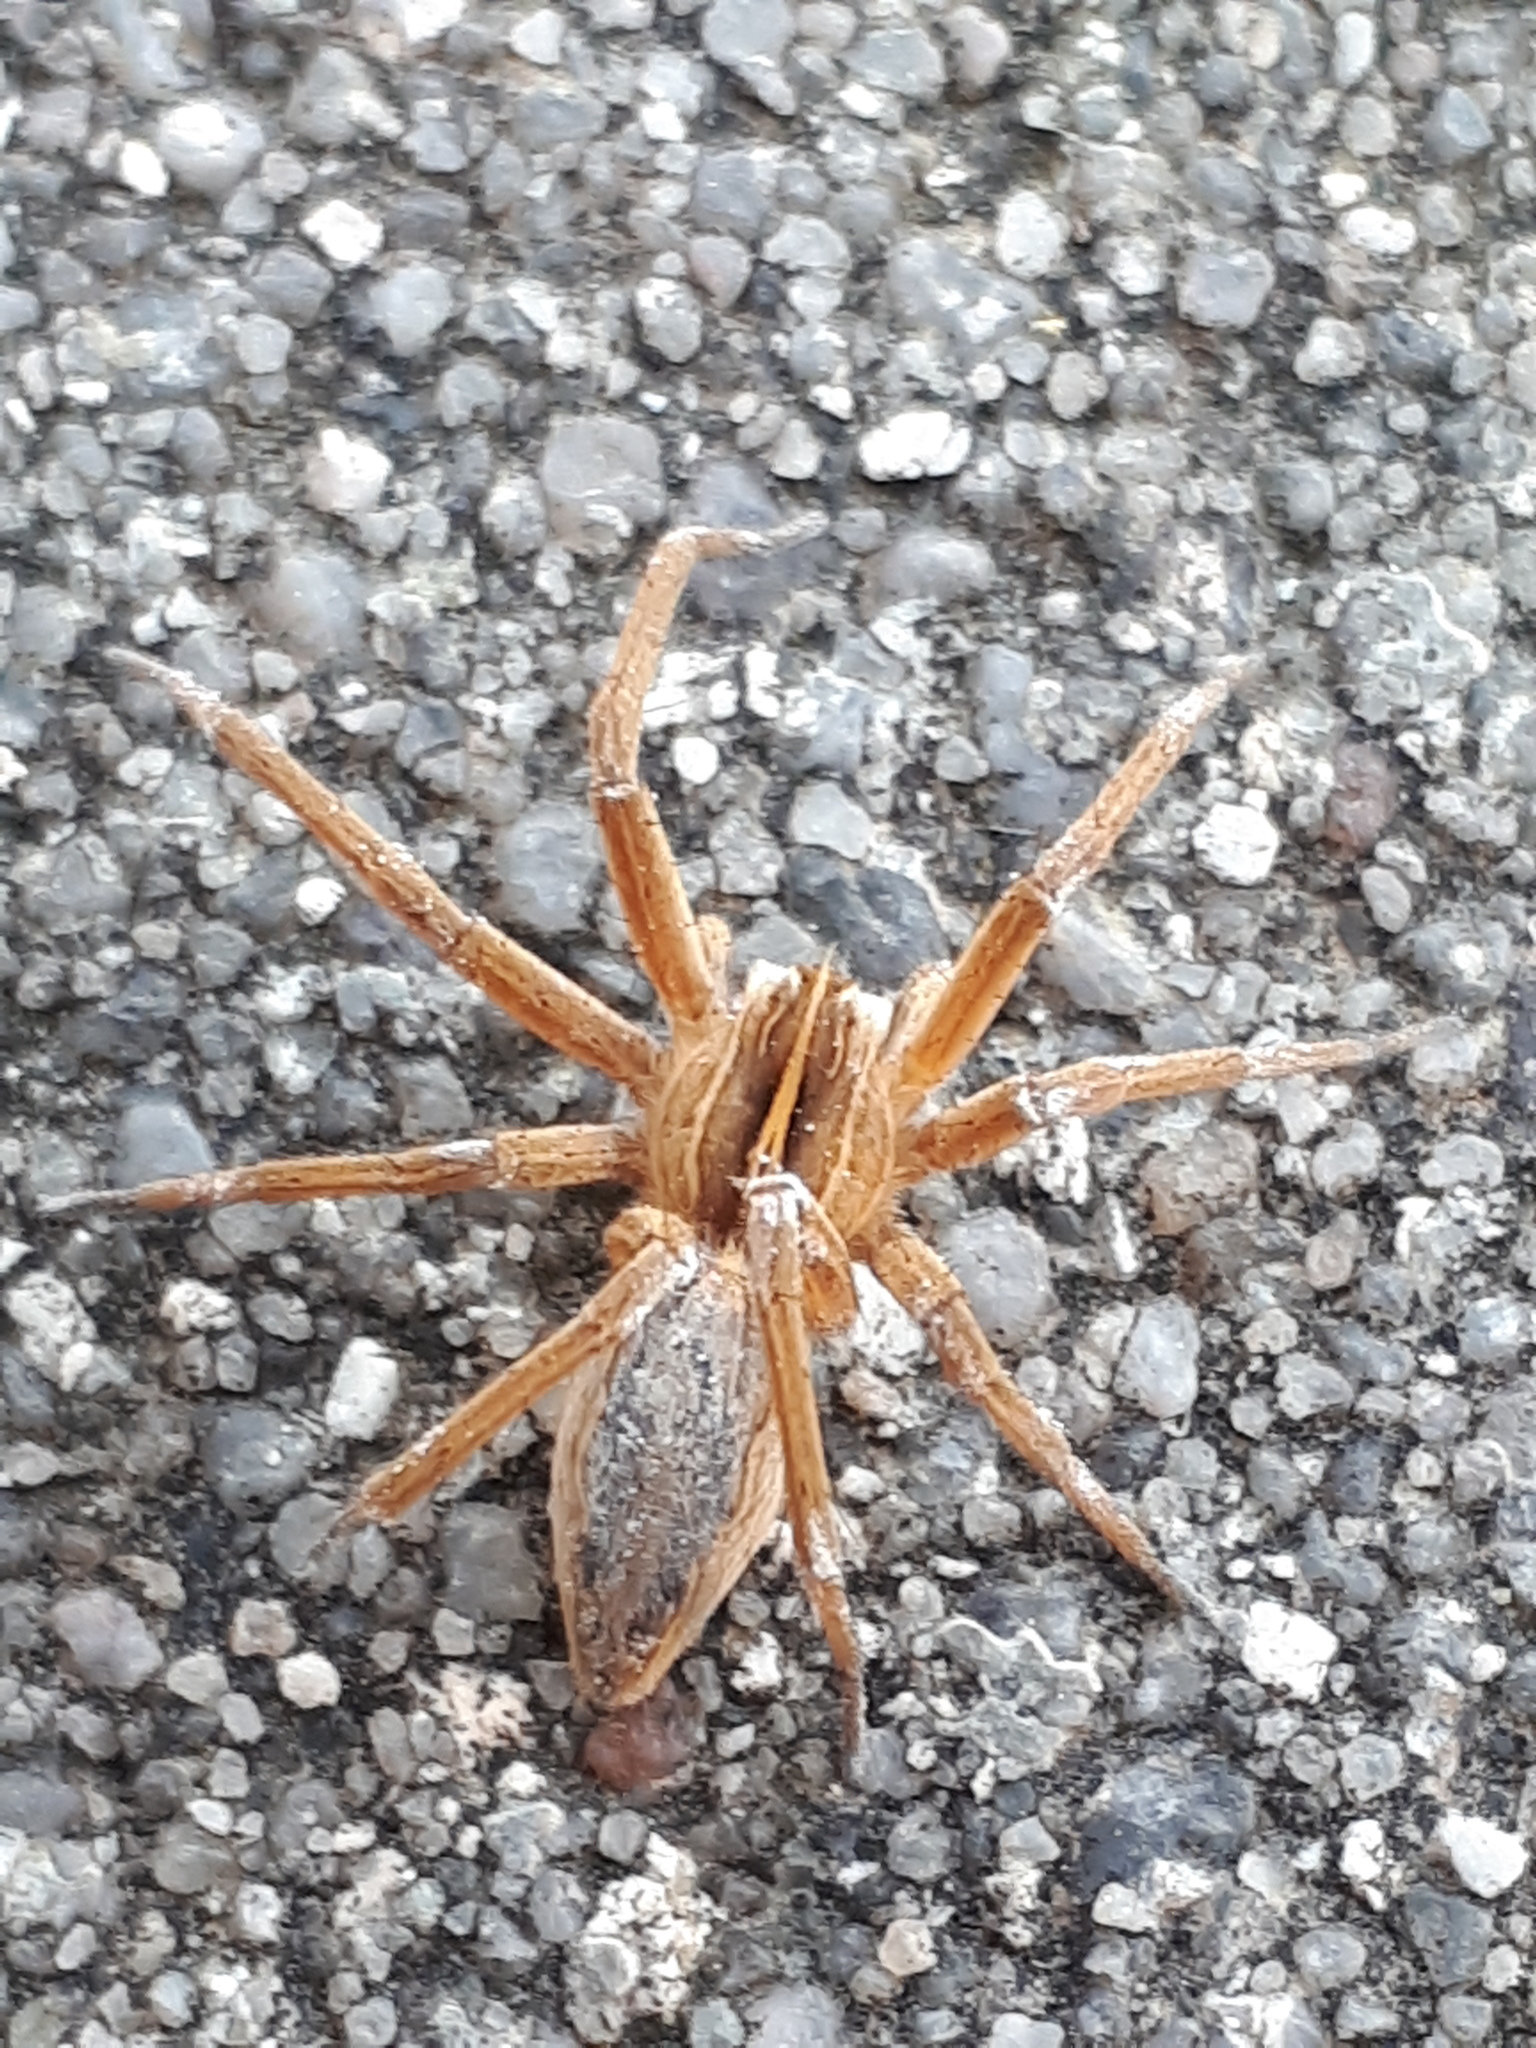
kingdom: Animalia
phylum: Arthropoda
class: Arachnida
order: Araneae
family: Pisauridae
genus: Pisaura
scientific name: Pisaura mirabilis
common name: Tent spider
